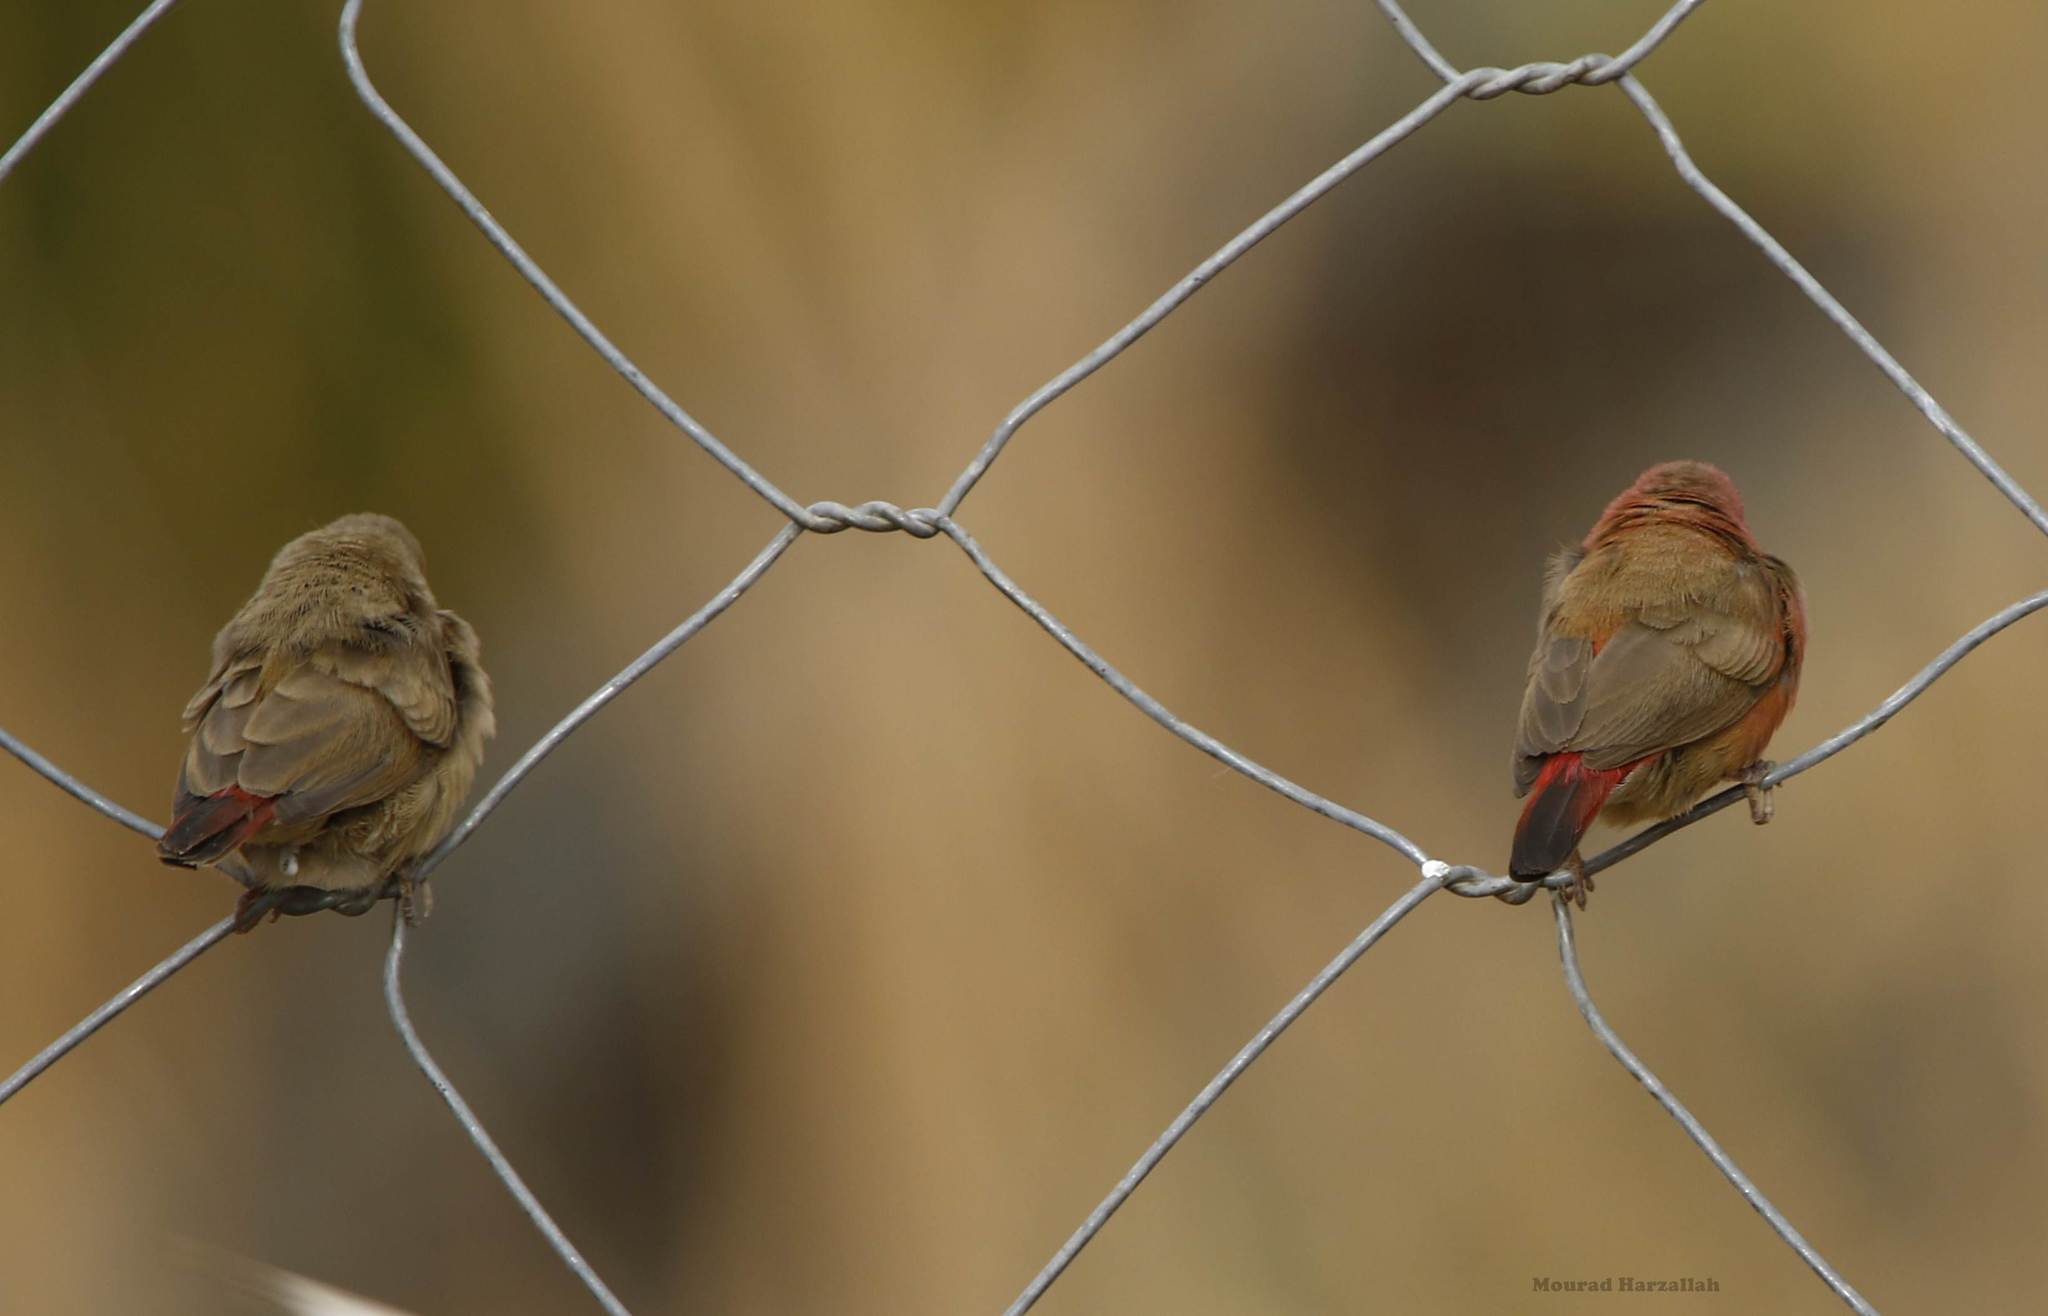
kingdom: Animalia
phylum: Chordata
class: Aves
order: Passeriformes
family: Estrildidae
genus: Lagonosticta
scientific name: Lagonosticta senegala
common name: Red-billed firefinch
